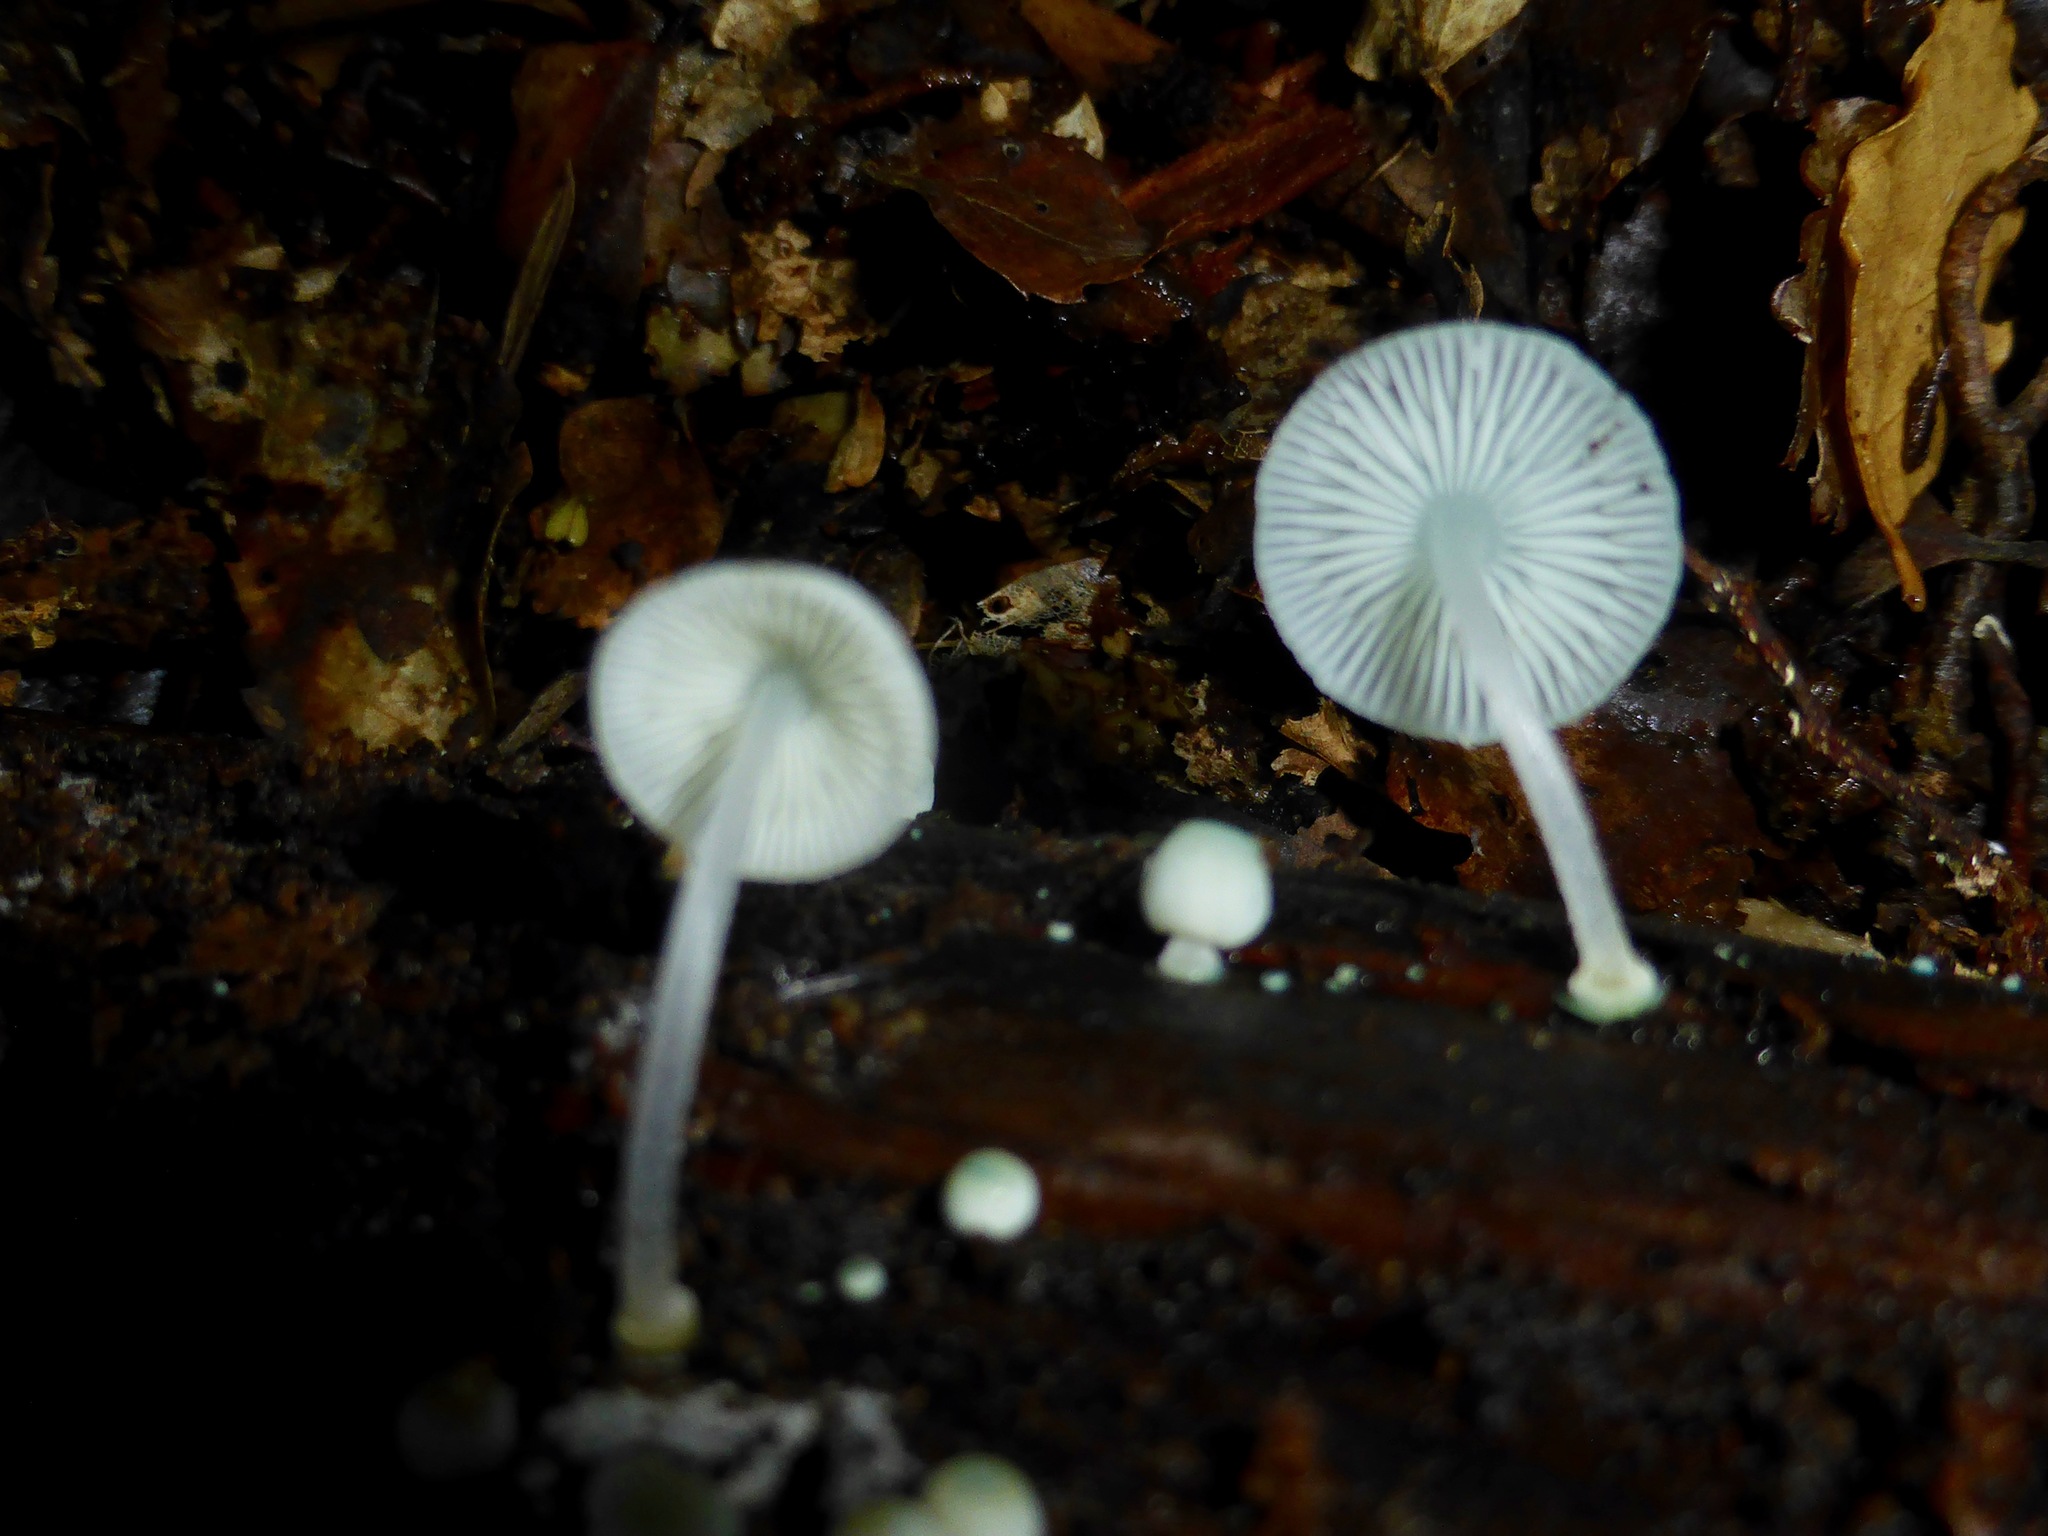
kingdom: Fungi
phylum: Basidiomycota
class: Agaricomycetes
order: Agaricales
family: Mycenaceae
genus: Mycena
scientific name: Mycena interrupta
